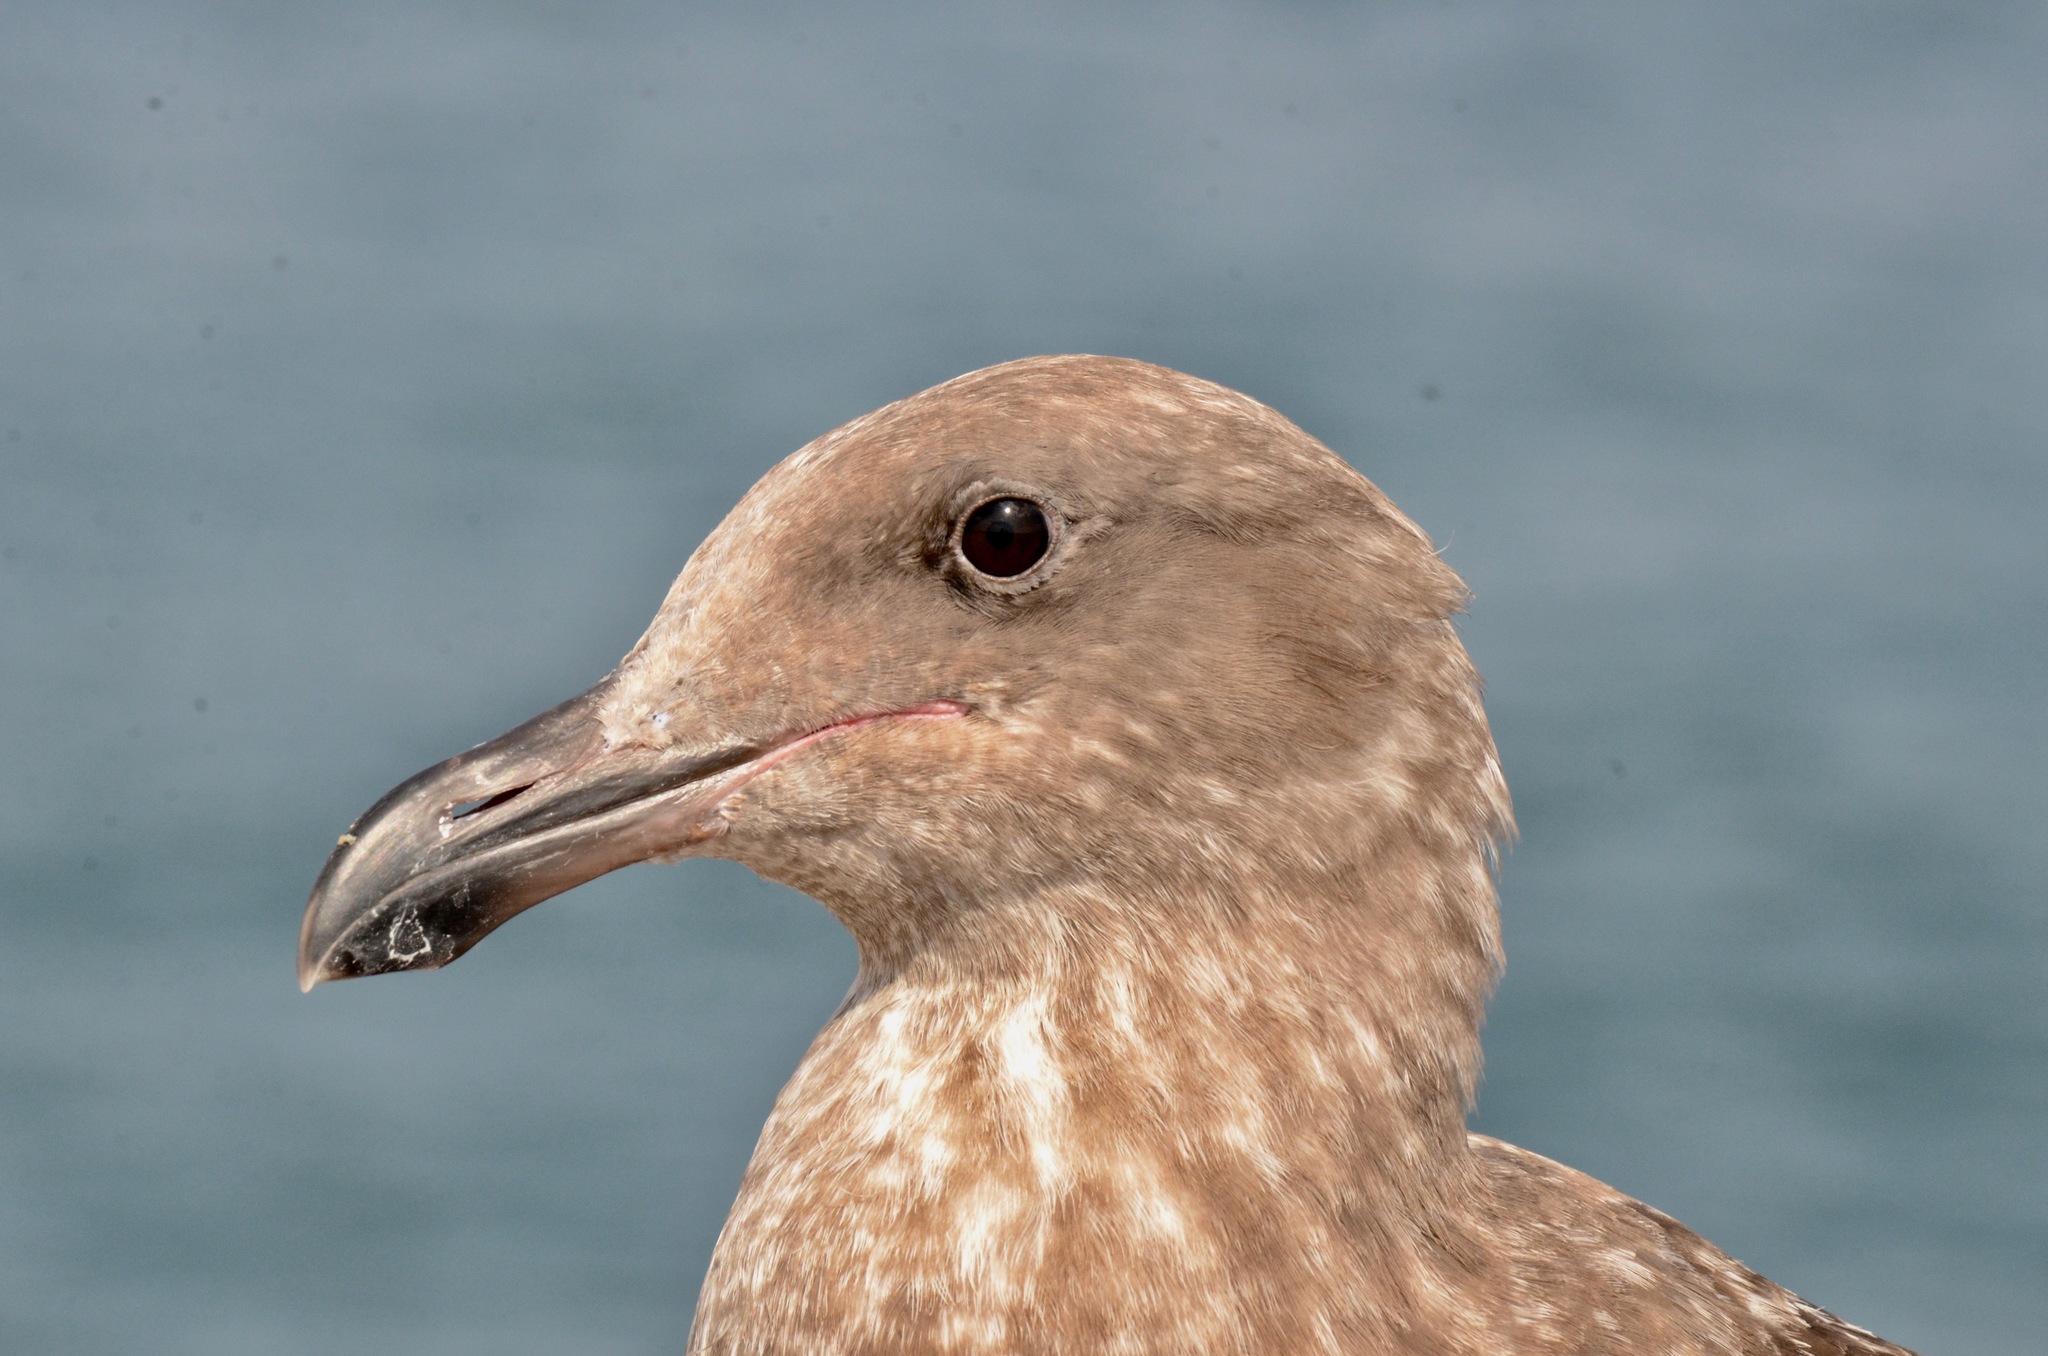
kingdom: Animalia
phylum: Chordata
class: Aves
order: Charadriiformes
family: Laridae
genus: Larus
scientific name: Larus occidentalis
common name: Western gull
